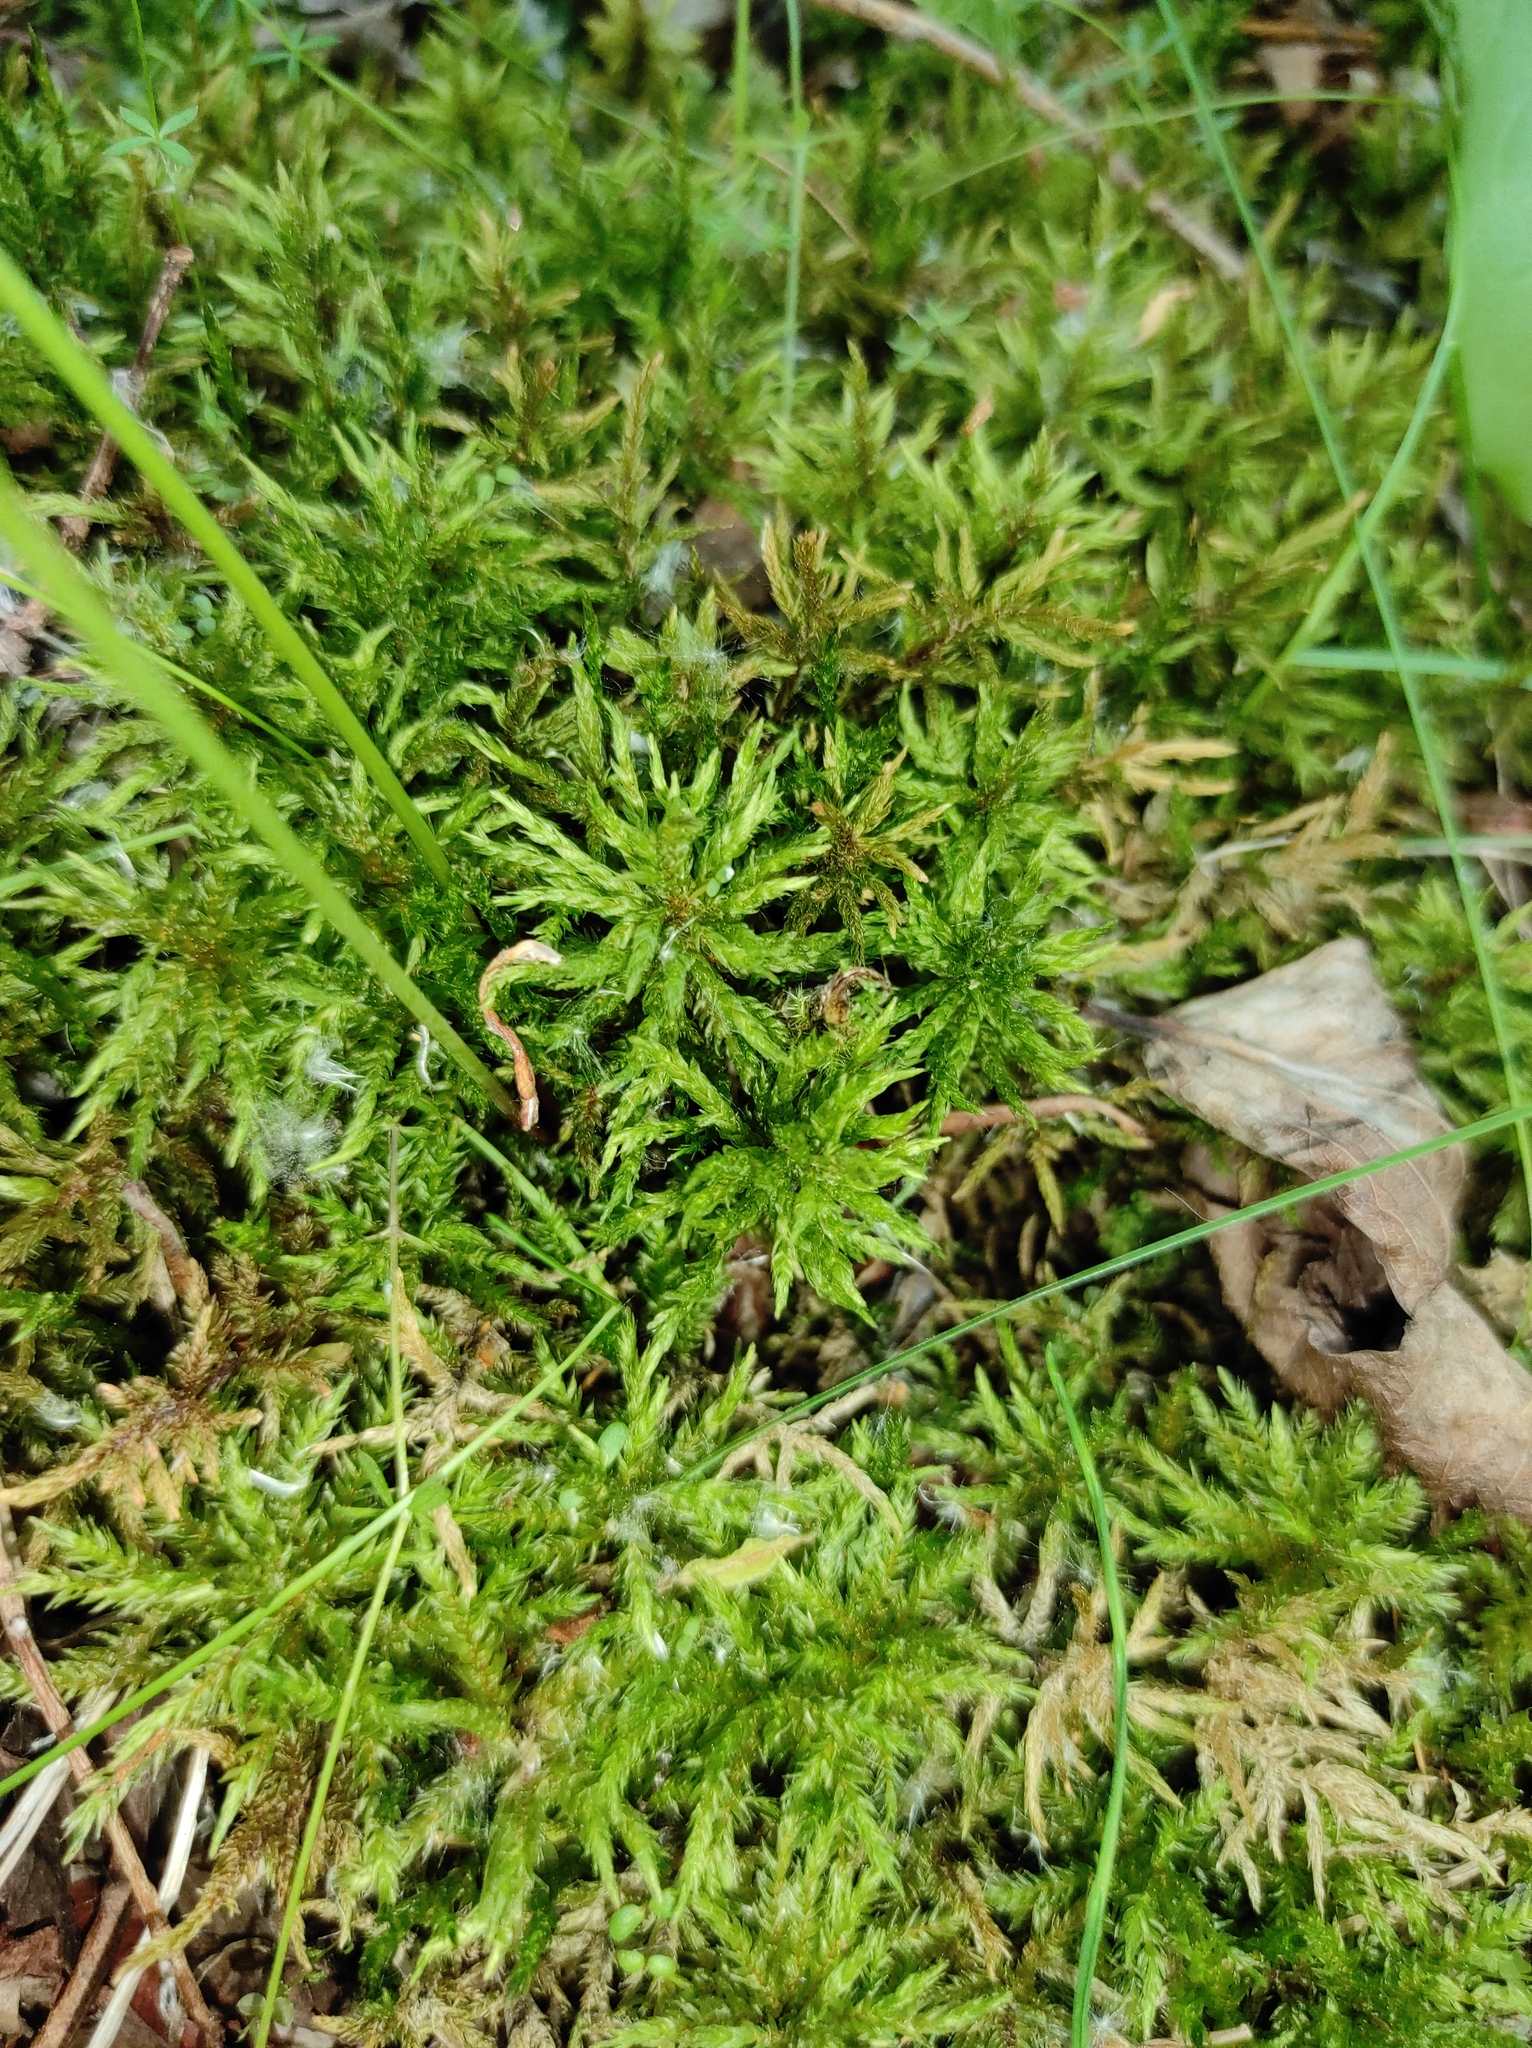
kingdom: Plantae
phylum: Bryophyta
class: Bryopsida
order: Hypnales
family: Climaciaceae
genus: Climacium
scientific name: Climacium dendroides
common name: Northern tree moss
